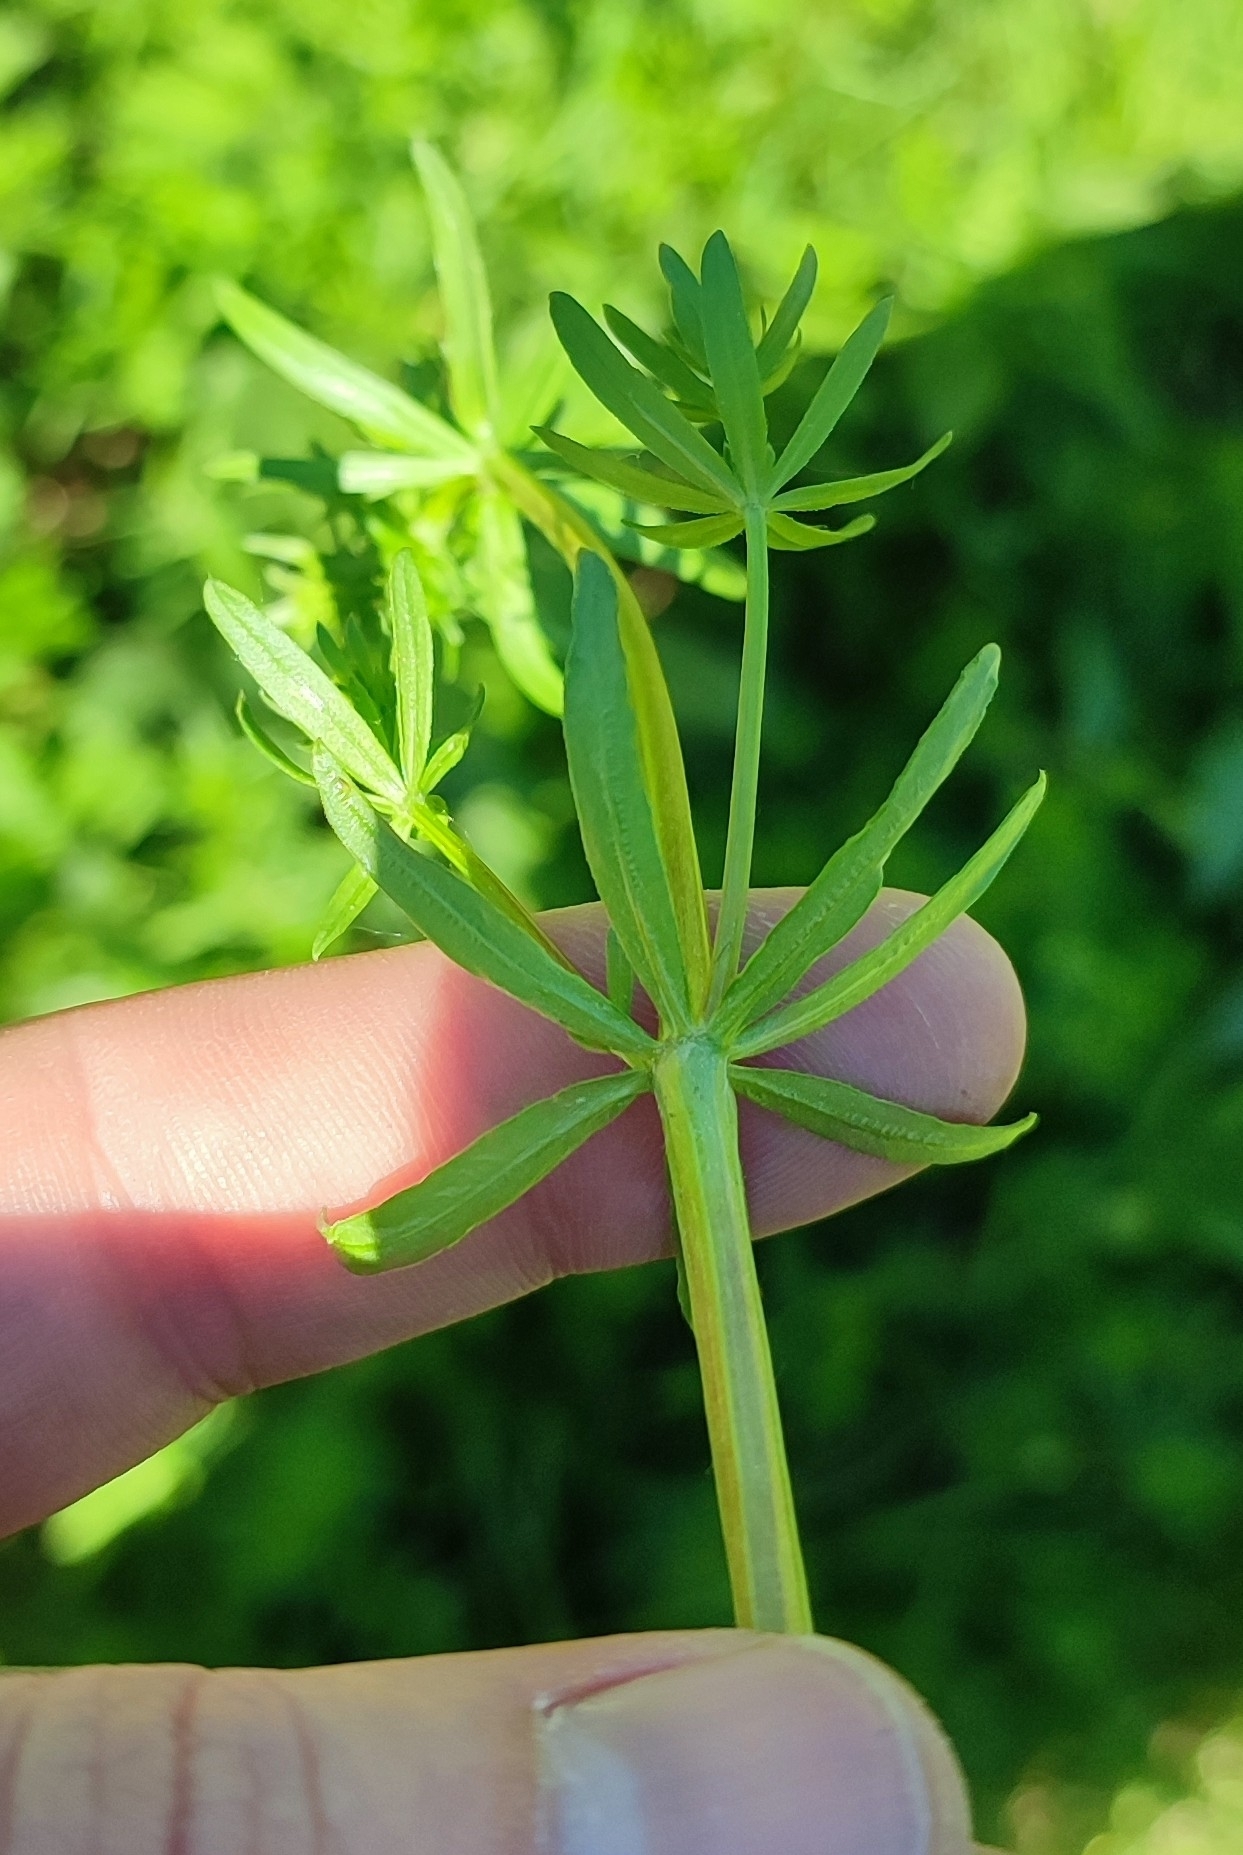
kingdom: Plantae
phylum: Tracheophyta
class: Magnoliopsida
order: Gentianales
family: Rubiaceae
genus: Galium
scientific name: Galium mollugo
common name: Hedge bedstraw
